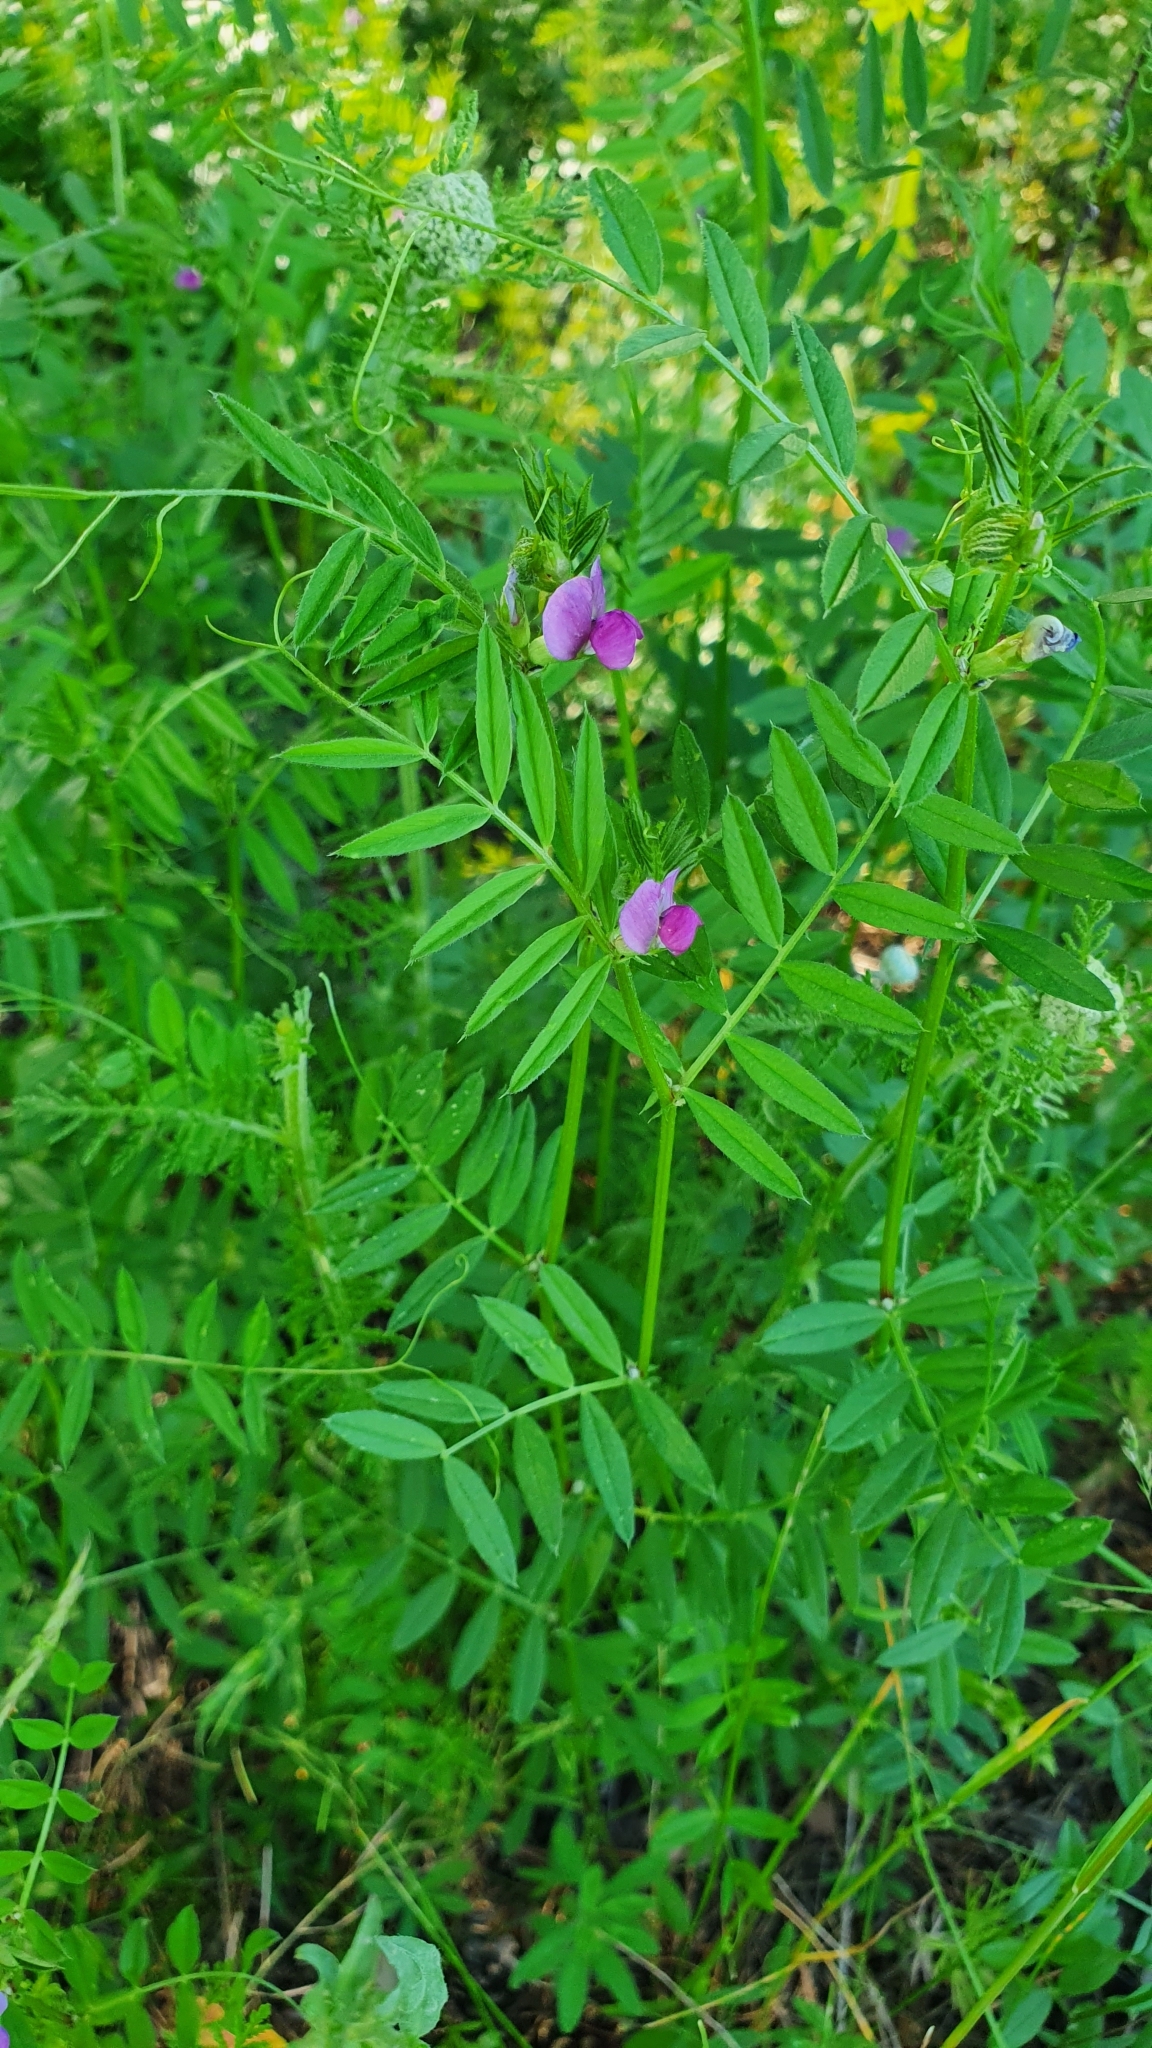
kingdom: Plantae
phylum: Tracheophyta
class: Magnoliopsida
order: Fabales
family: Fabaceae
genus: Vicia
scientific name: Vicia sativa
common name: Garden vetch
